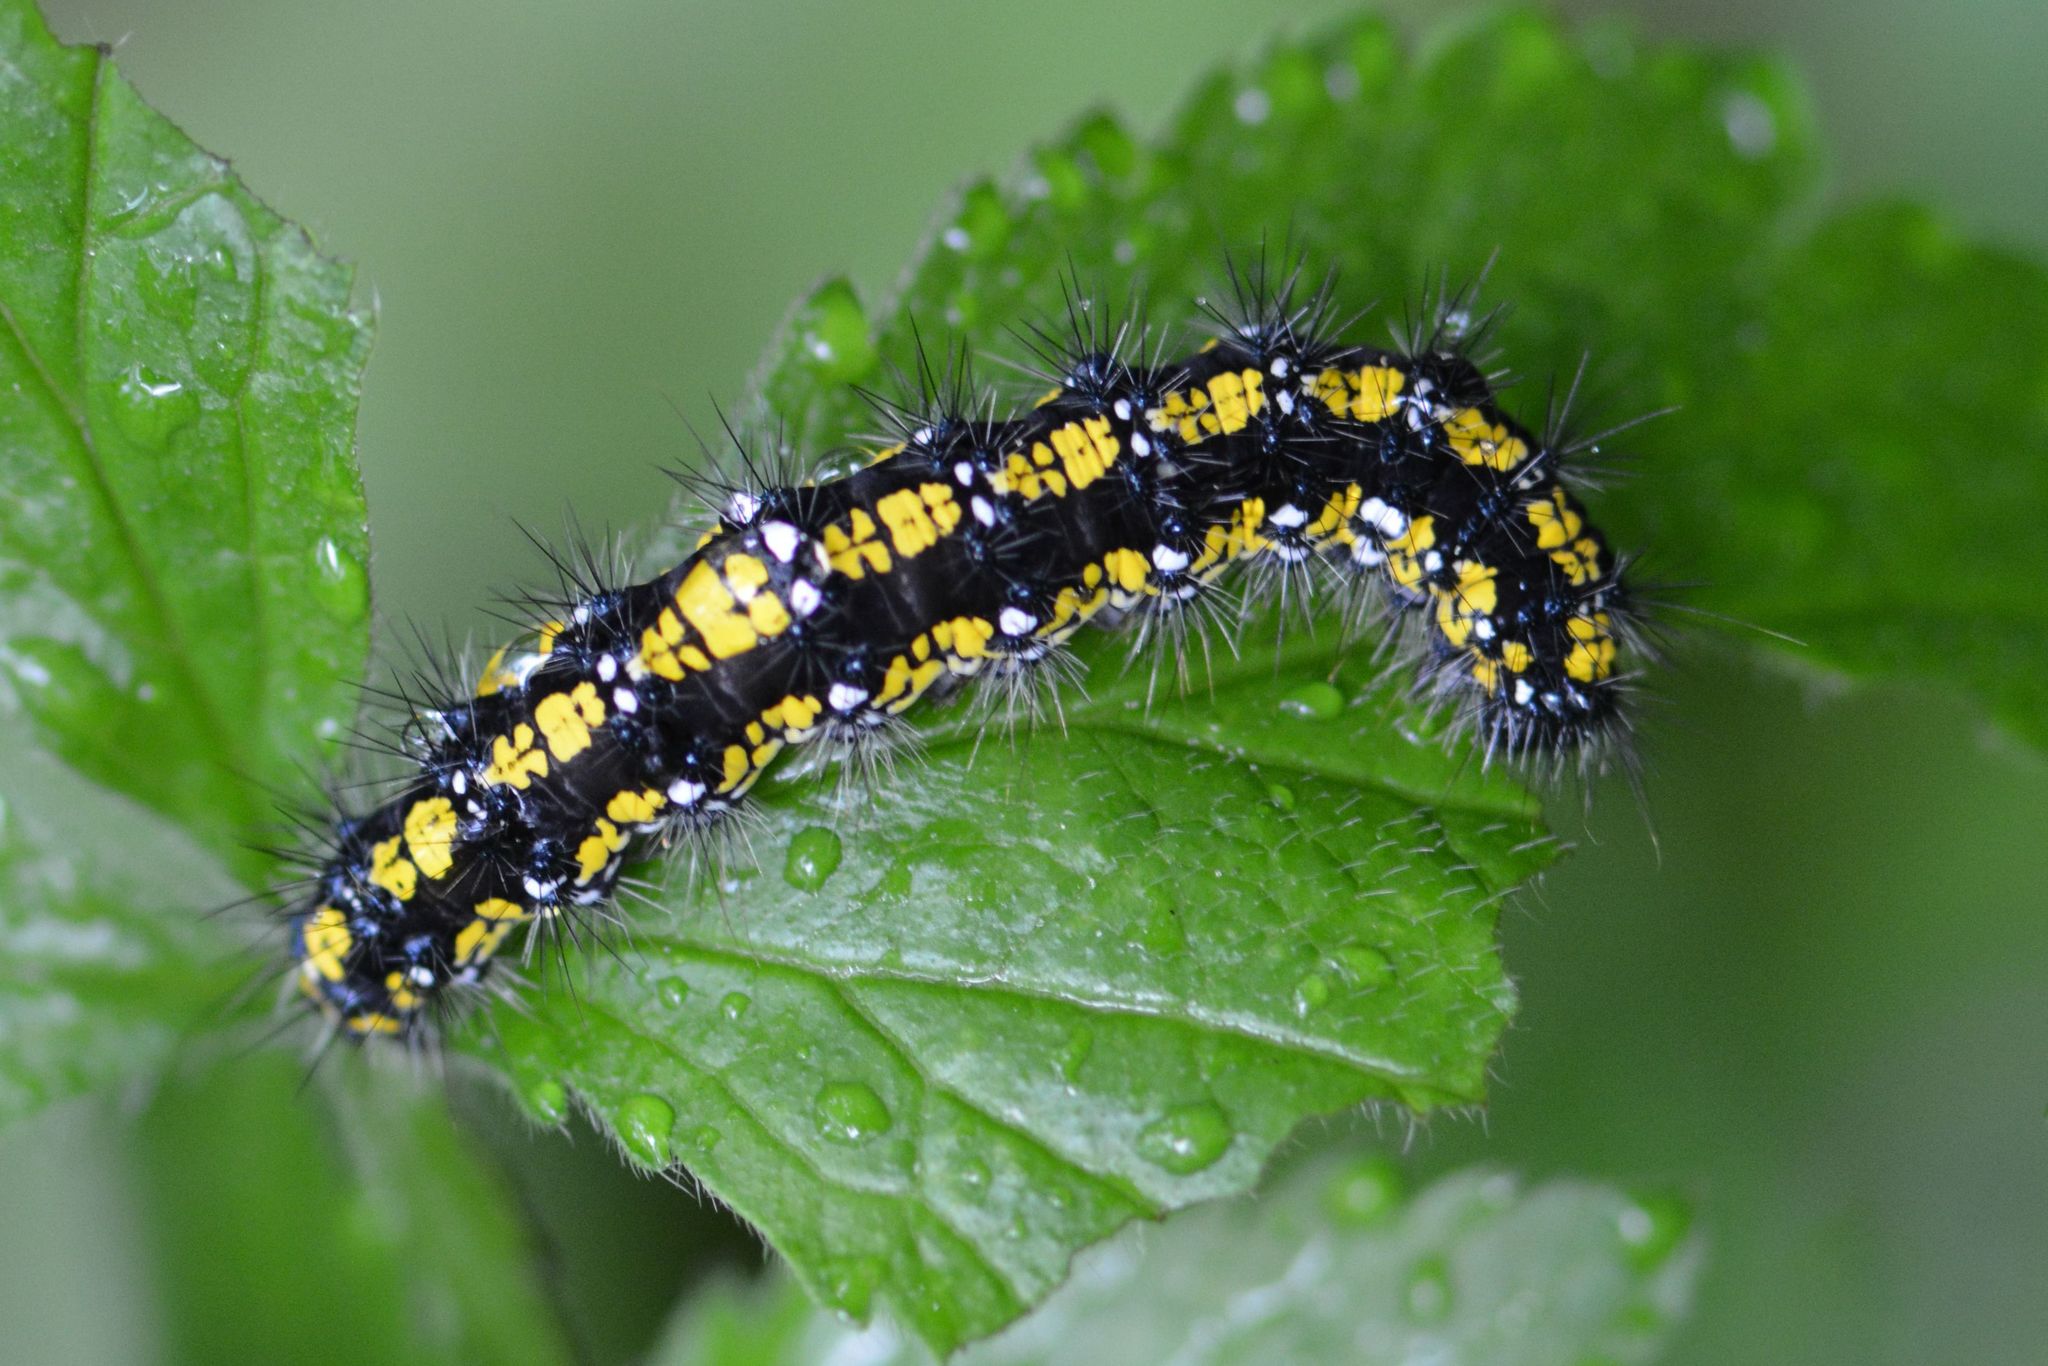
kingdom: Animalia
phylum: Arthropoda
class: Insecta
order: Lepidoptera
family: Erebidae
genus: Callimorpha
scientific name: Callimorpha dominula
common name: Scarlet tiger
